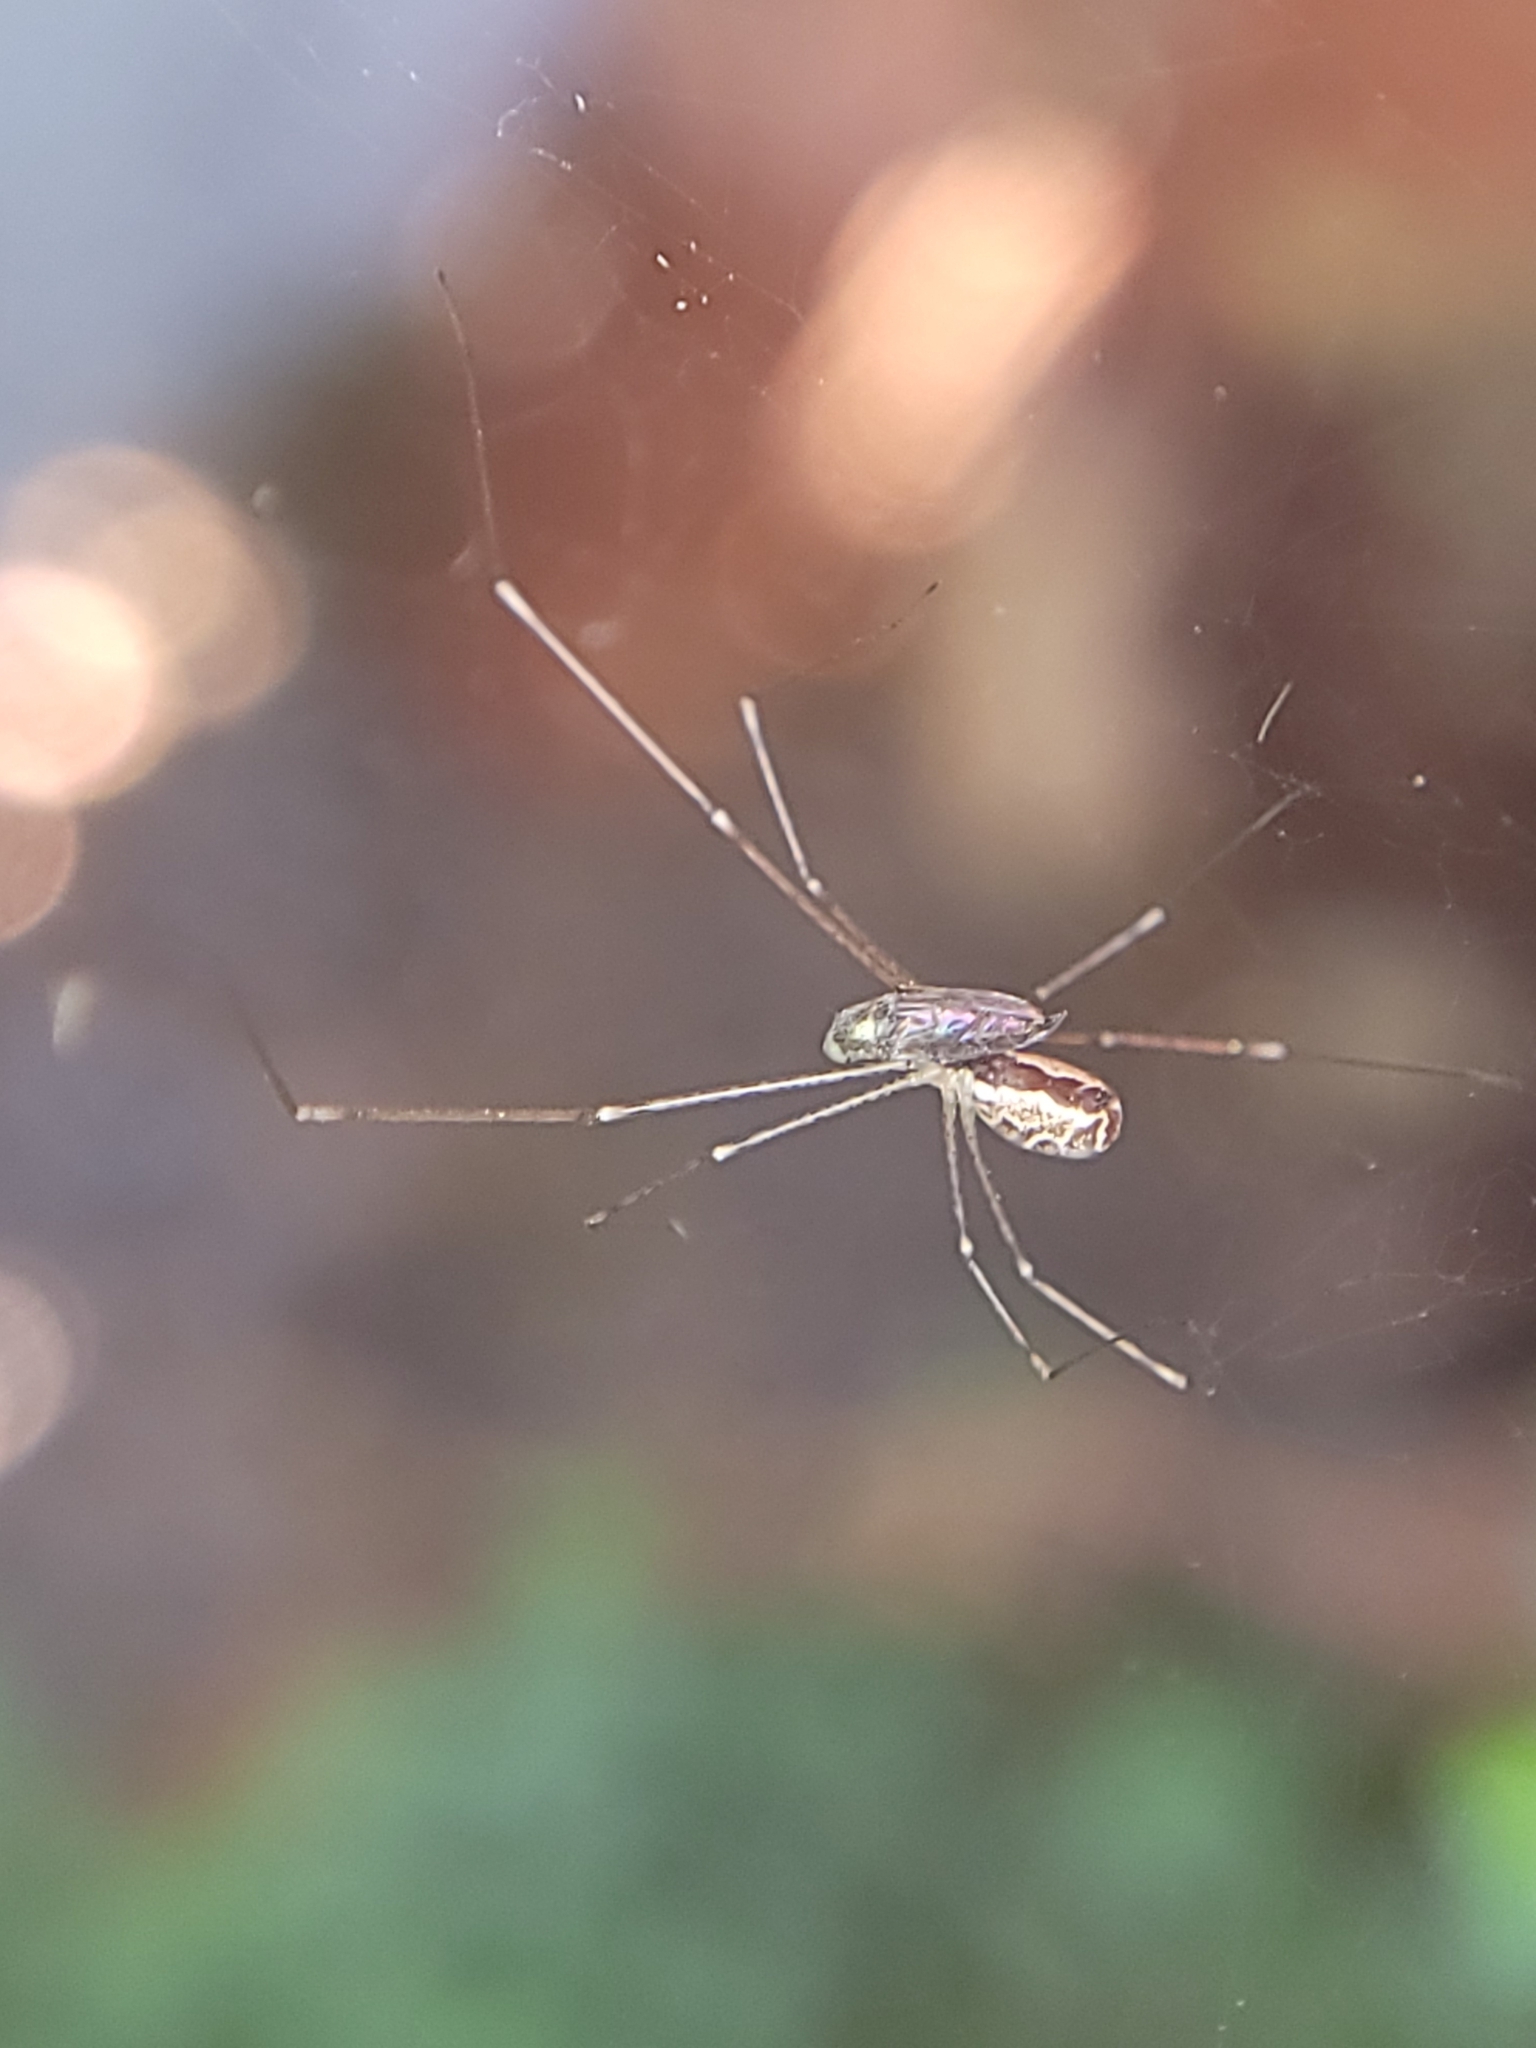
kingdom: Animalia
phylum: Arthropoda
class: Arachnida
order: Araneae
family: Pholcidae
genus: Holocnemus
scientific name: Holocnemus pluchei
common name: Marbled cellar spider
